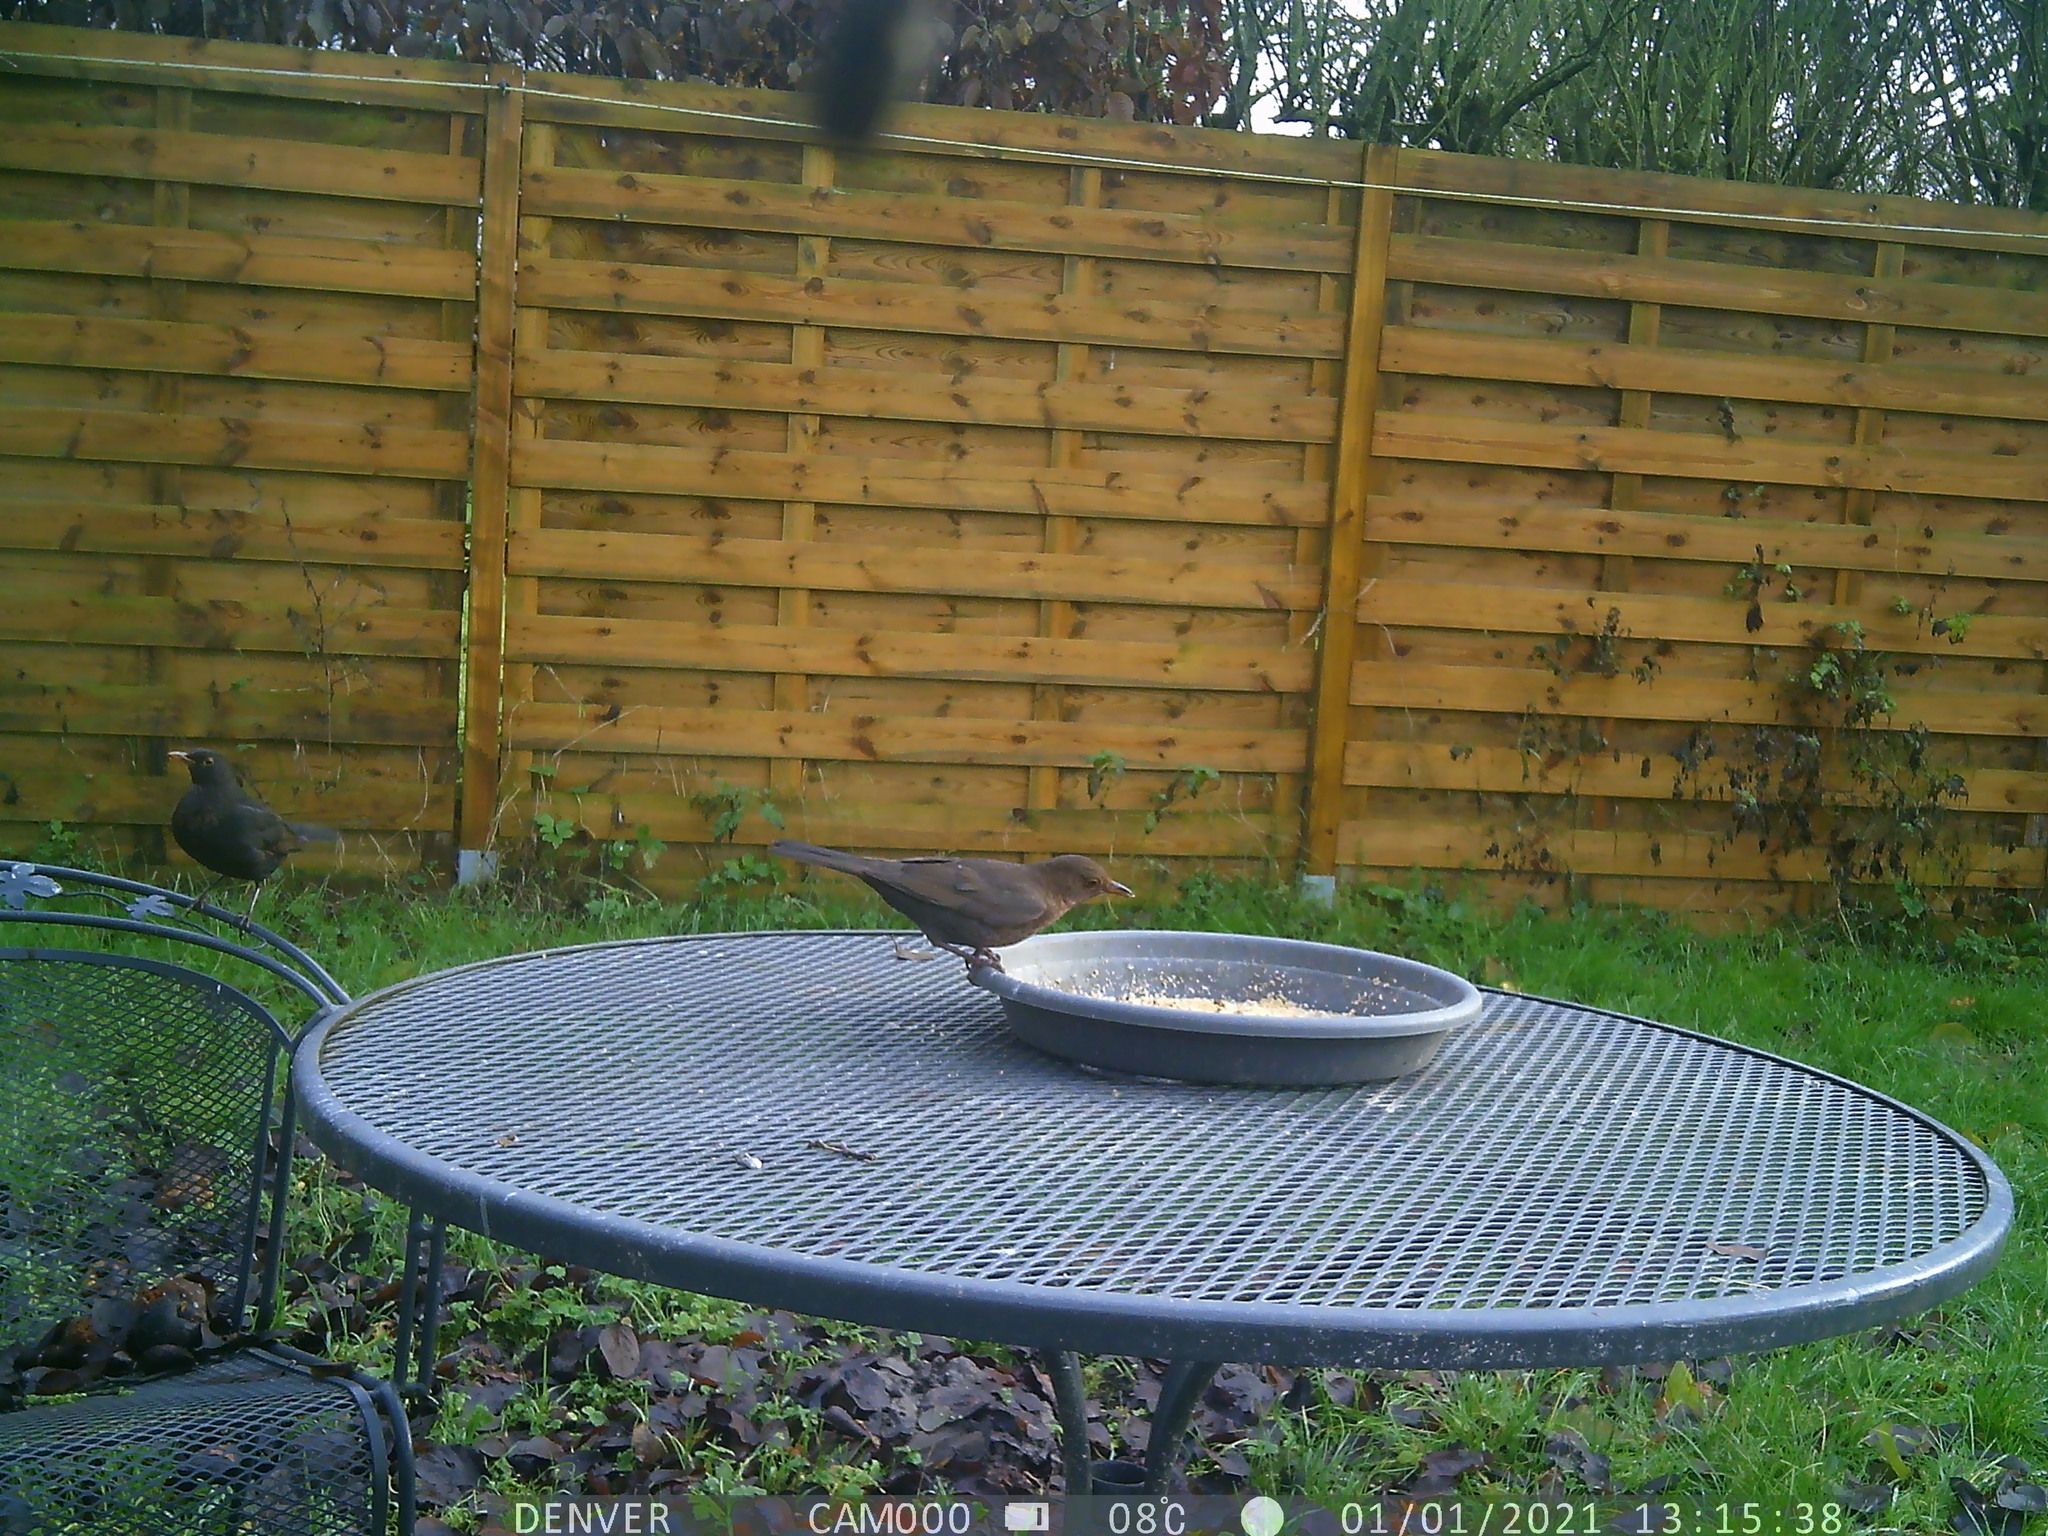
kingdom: Animalia
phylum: Chordata
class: Aves
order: Passeriformes
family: Turdidae
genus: Turdus
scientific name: Turdus merula
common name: Common blackbird
